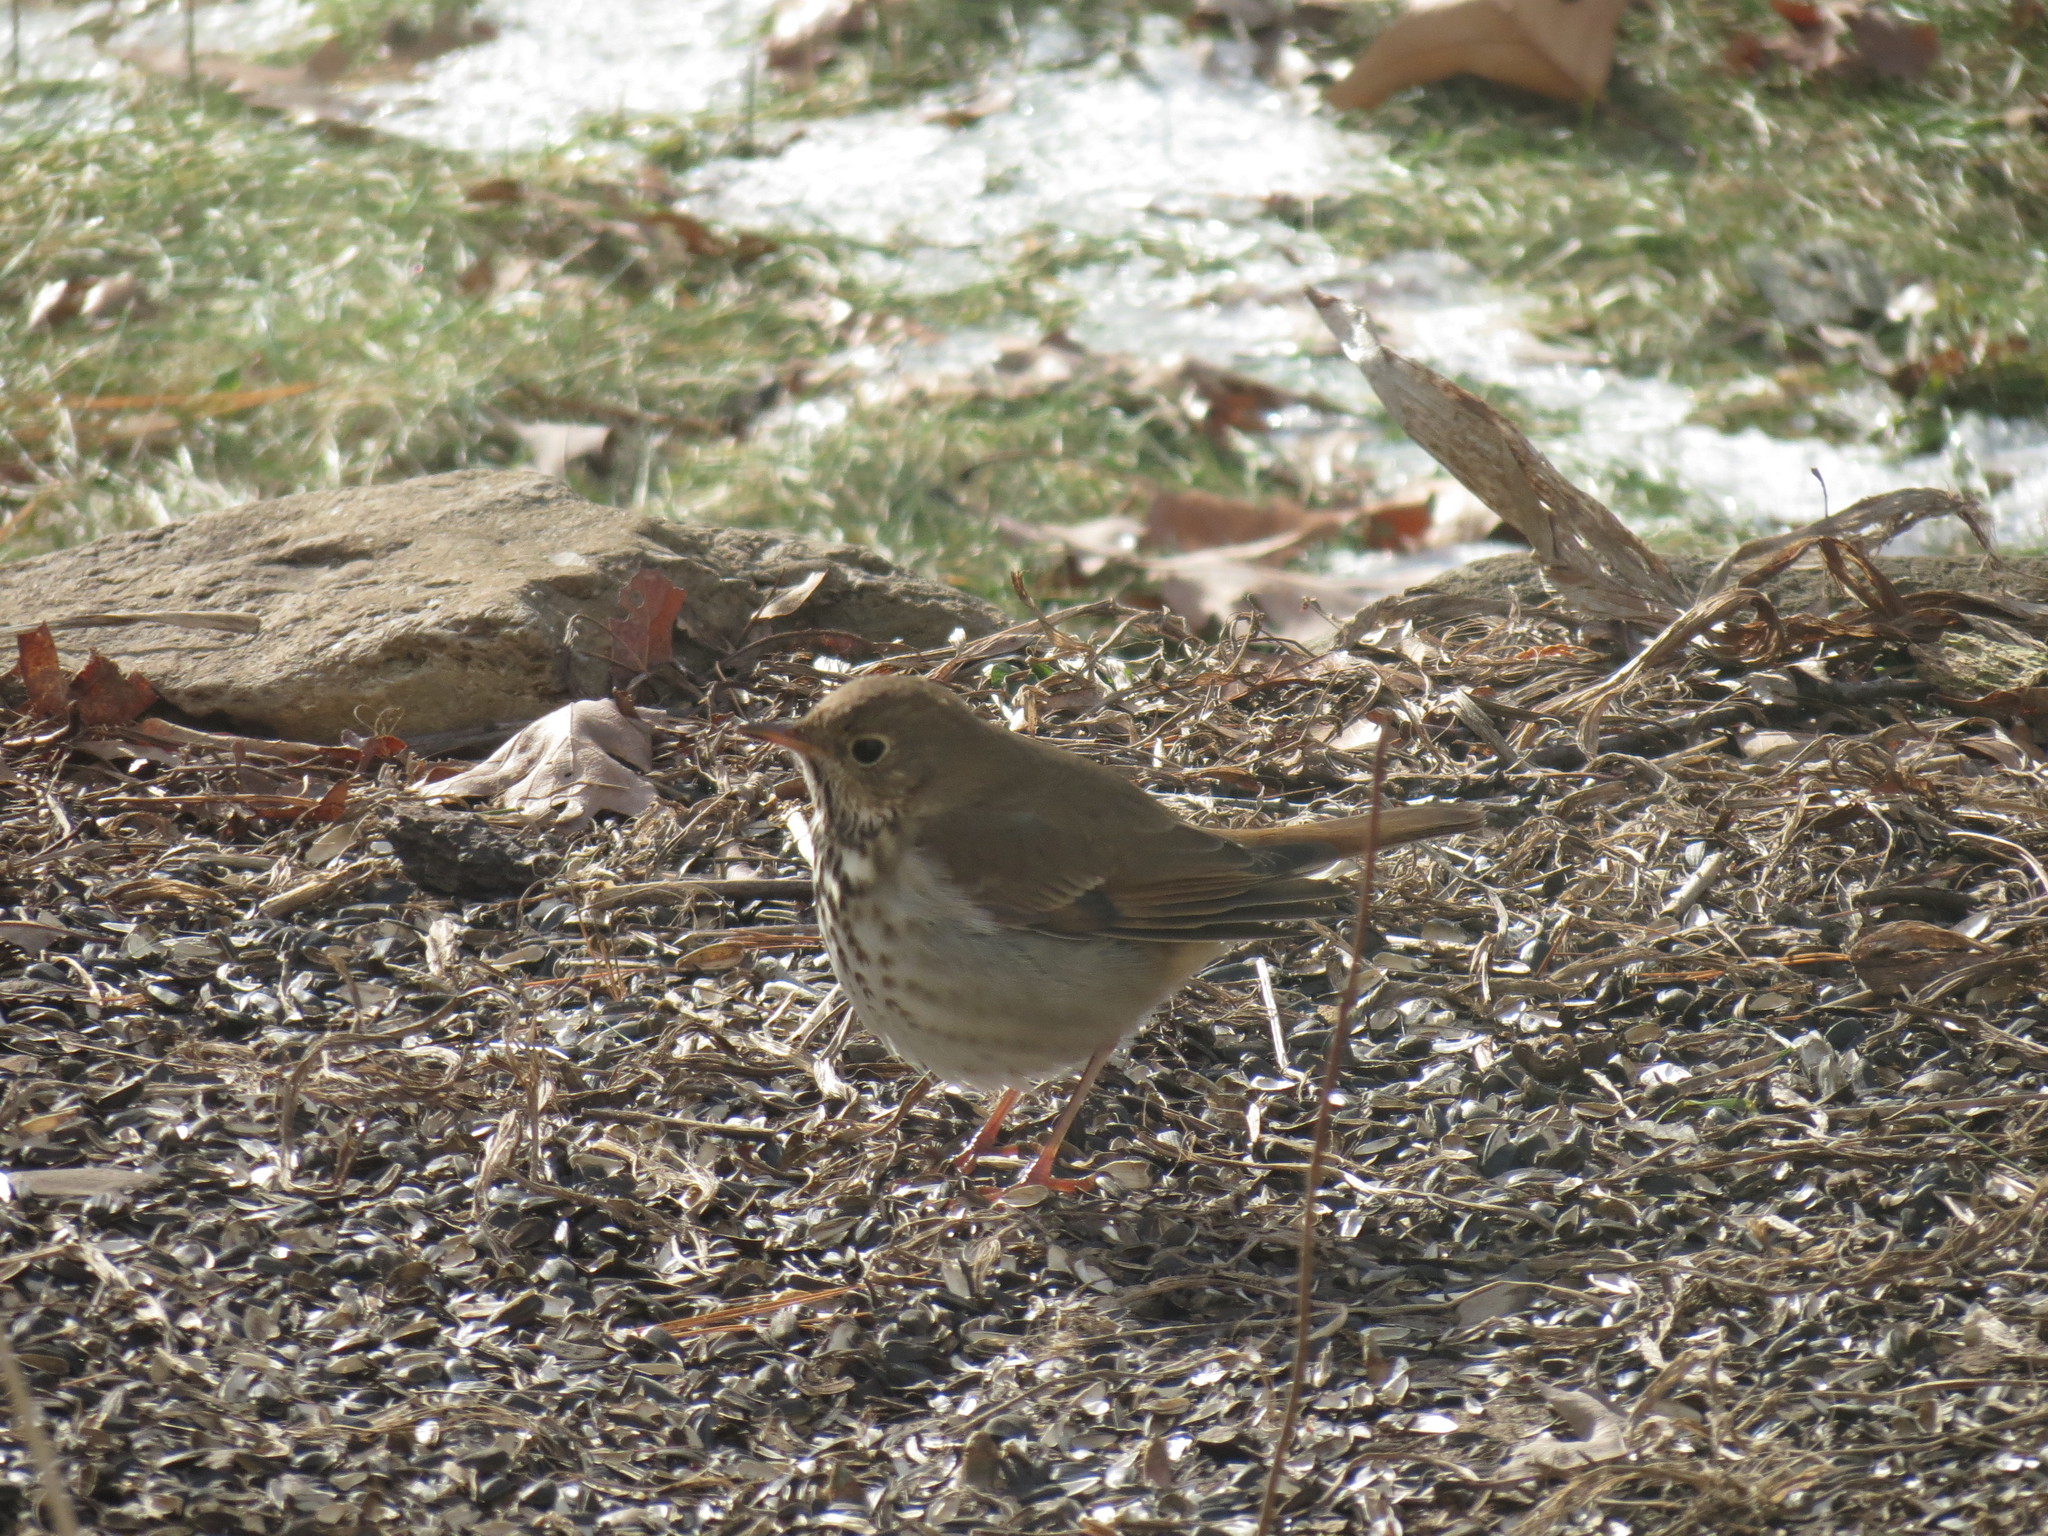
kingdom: Animalia
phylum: Chordata
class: Aves
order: Passeriformes
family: Turdidae
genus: Catharus
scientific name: Catharus guttatus
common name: Hermit thrush
